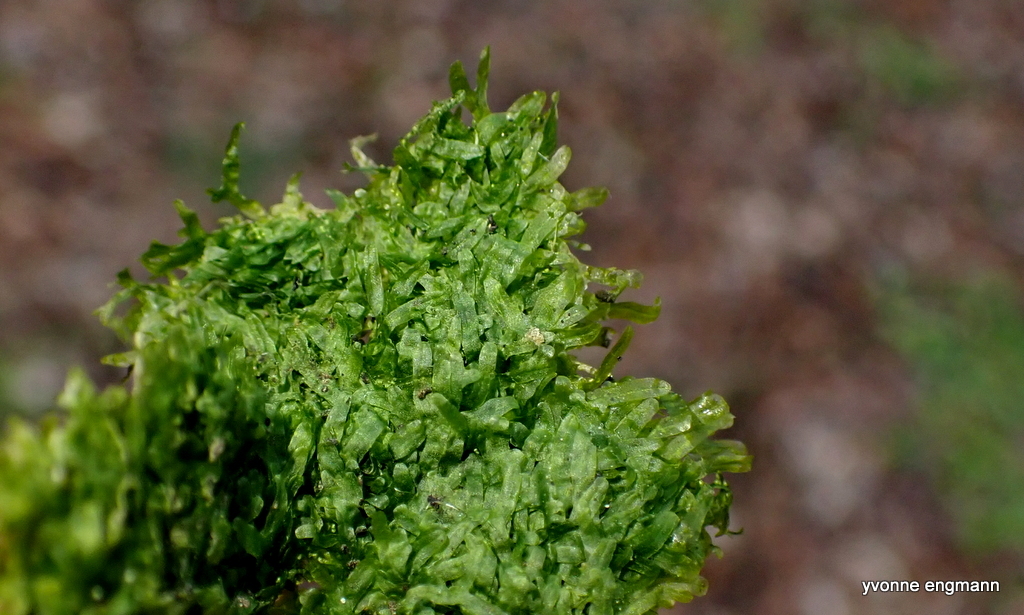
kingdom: Plantae
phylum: Marchantiophyta
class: Jungermanniopsida
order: Metzgeriales
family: Metzgeriaceae
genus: Metzgeria
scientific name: Metzgeria furcata
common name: Forked veilwort
